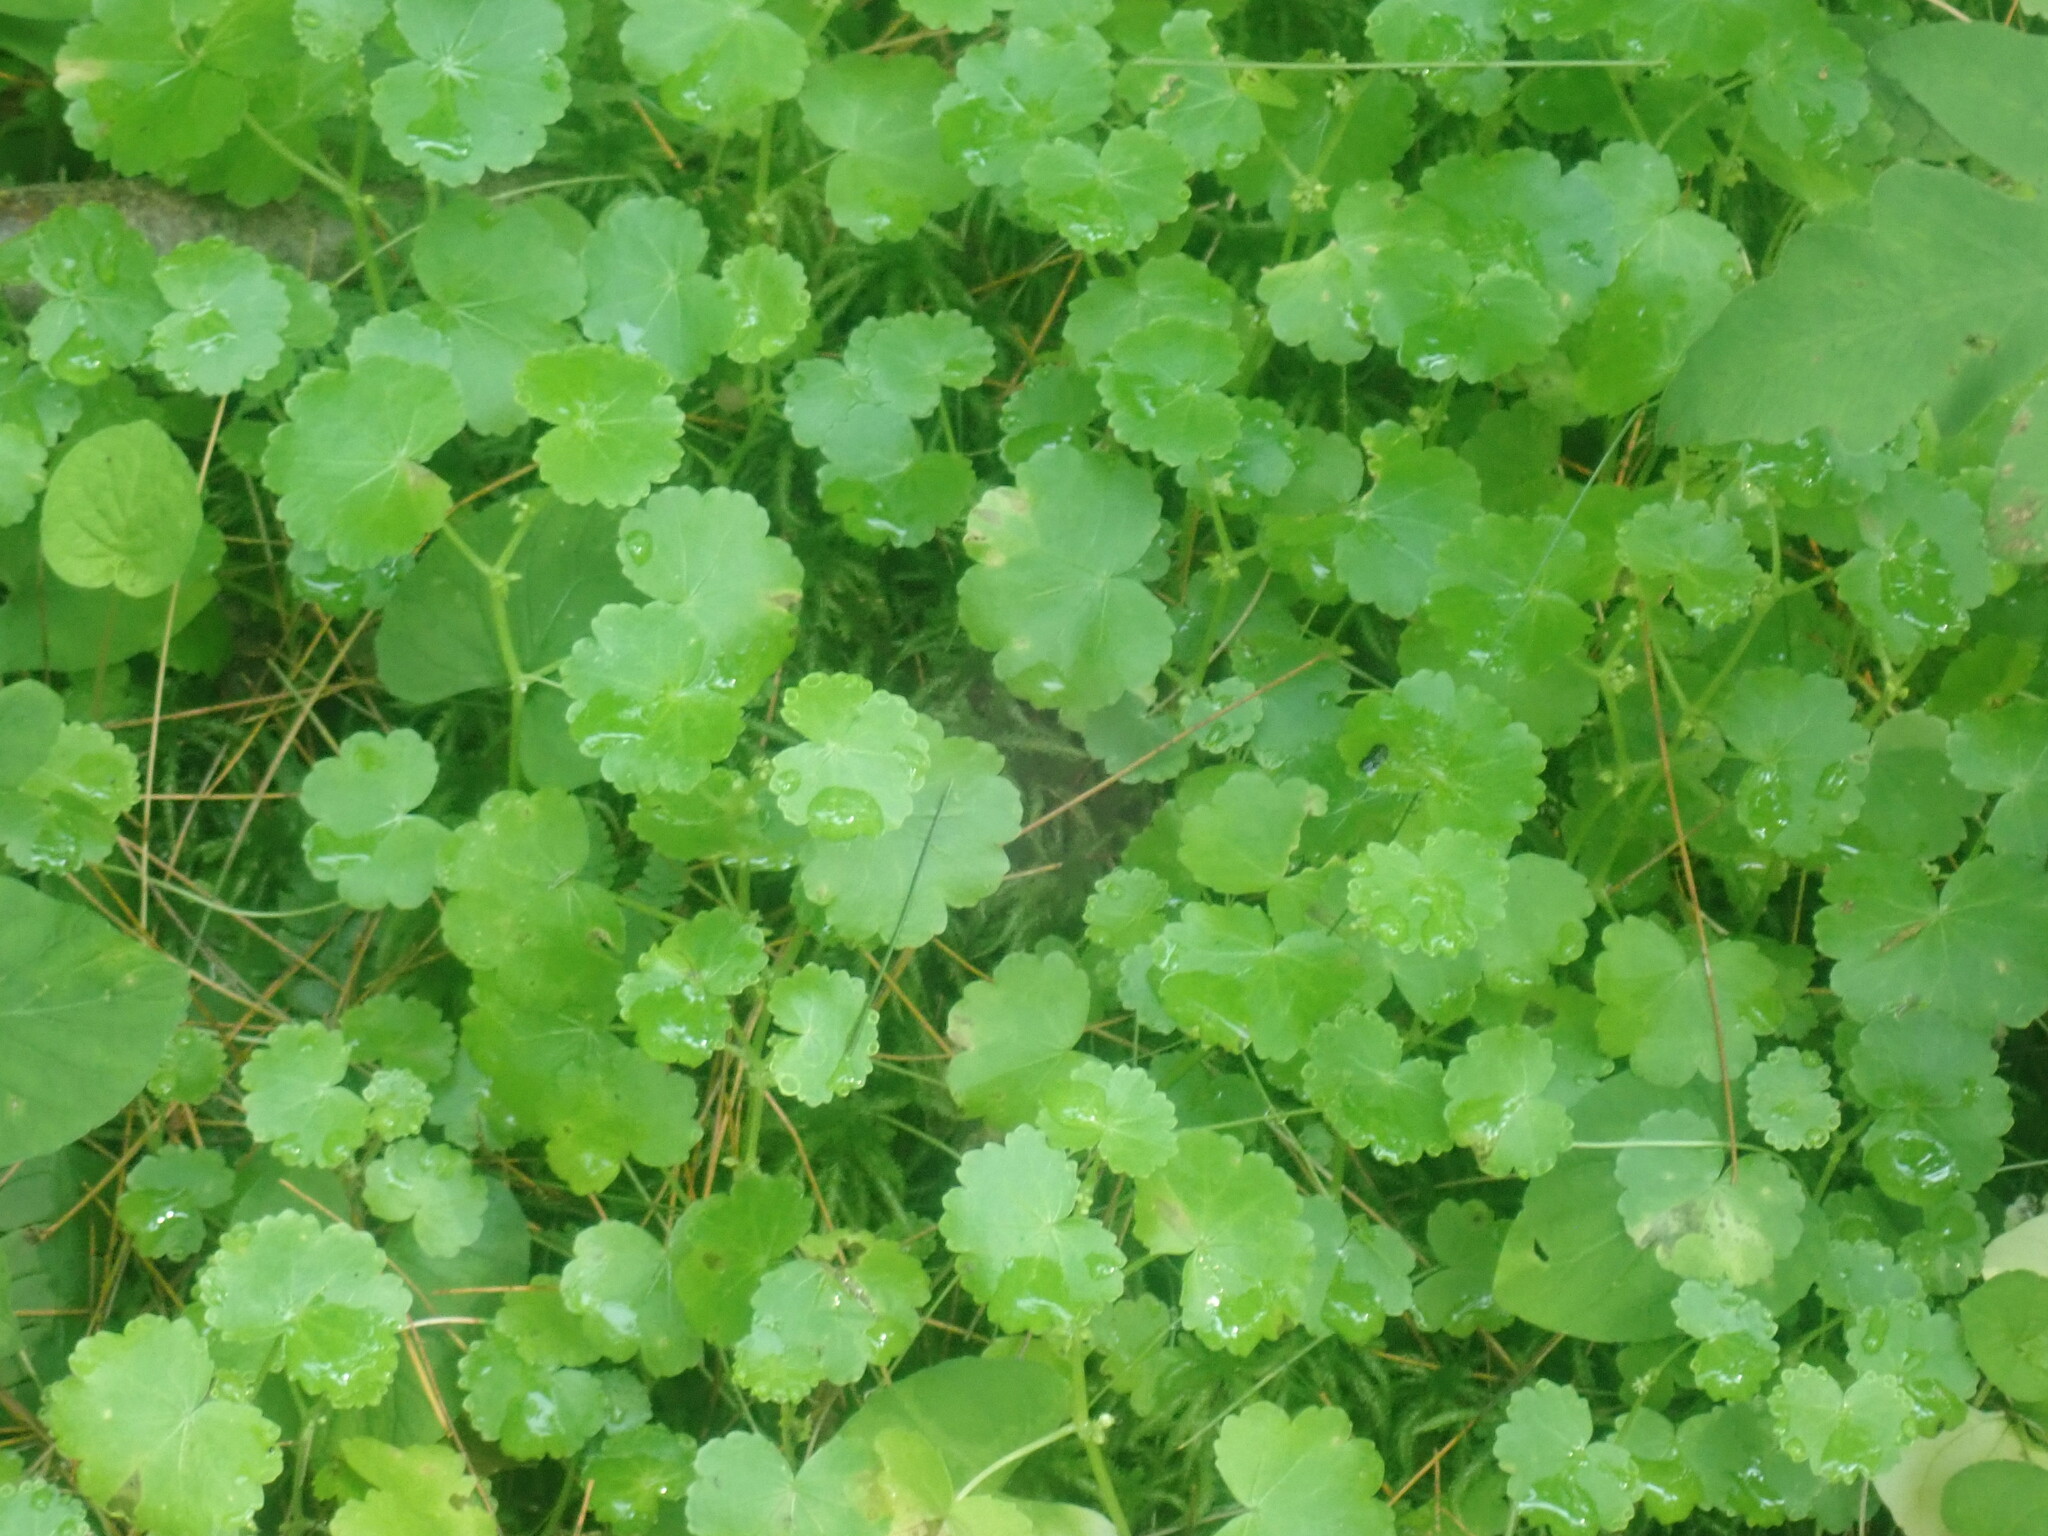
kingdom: Plantae
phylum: Tracheophyta
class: Magnoliopsida
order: Apiales
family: Araliaceae
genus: Hydrocotyle
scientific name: Hydrocotyle americana
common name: American water-pennywort
